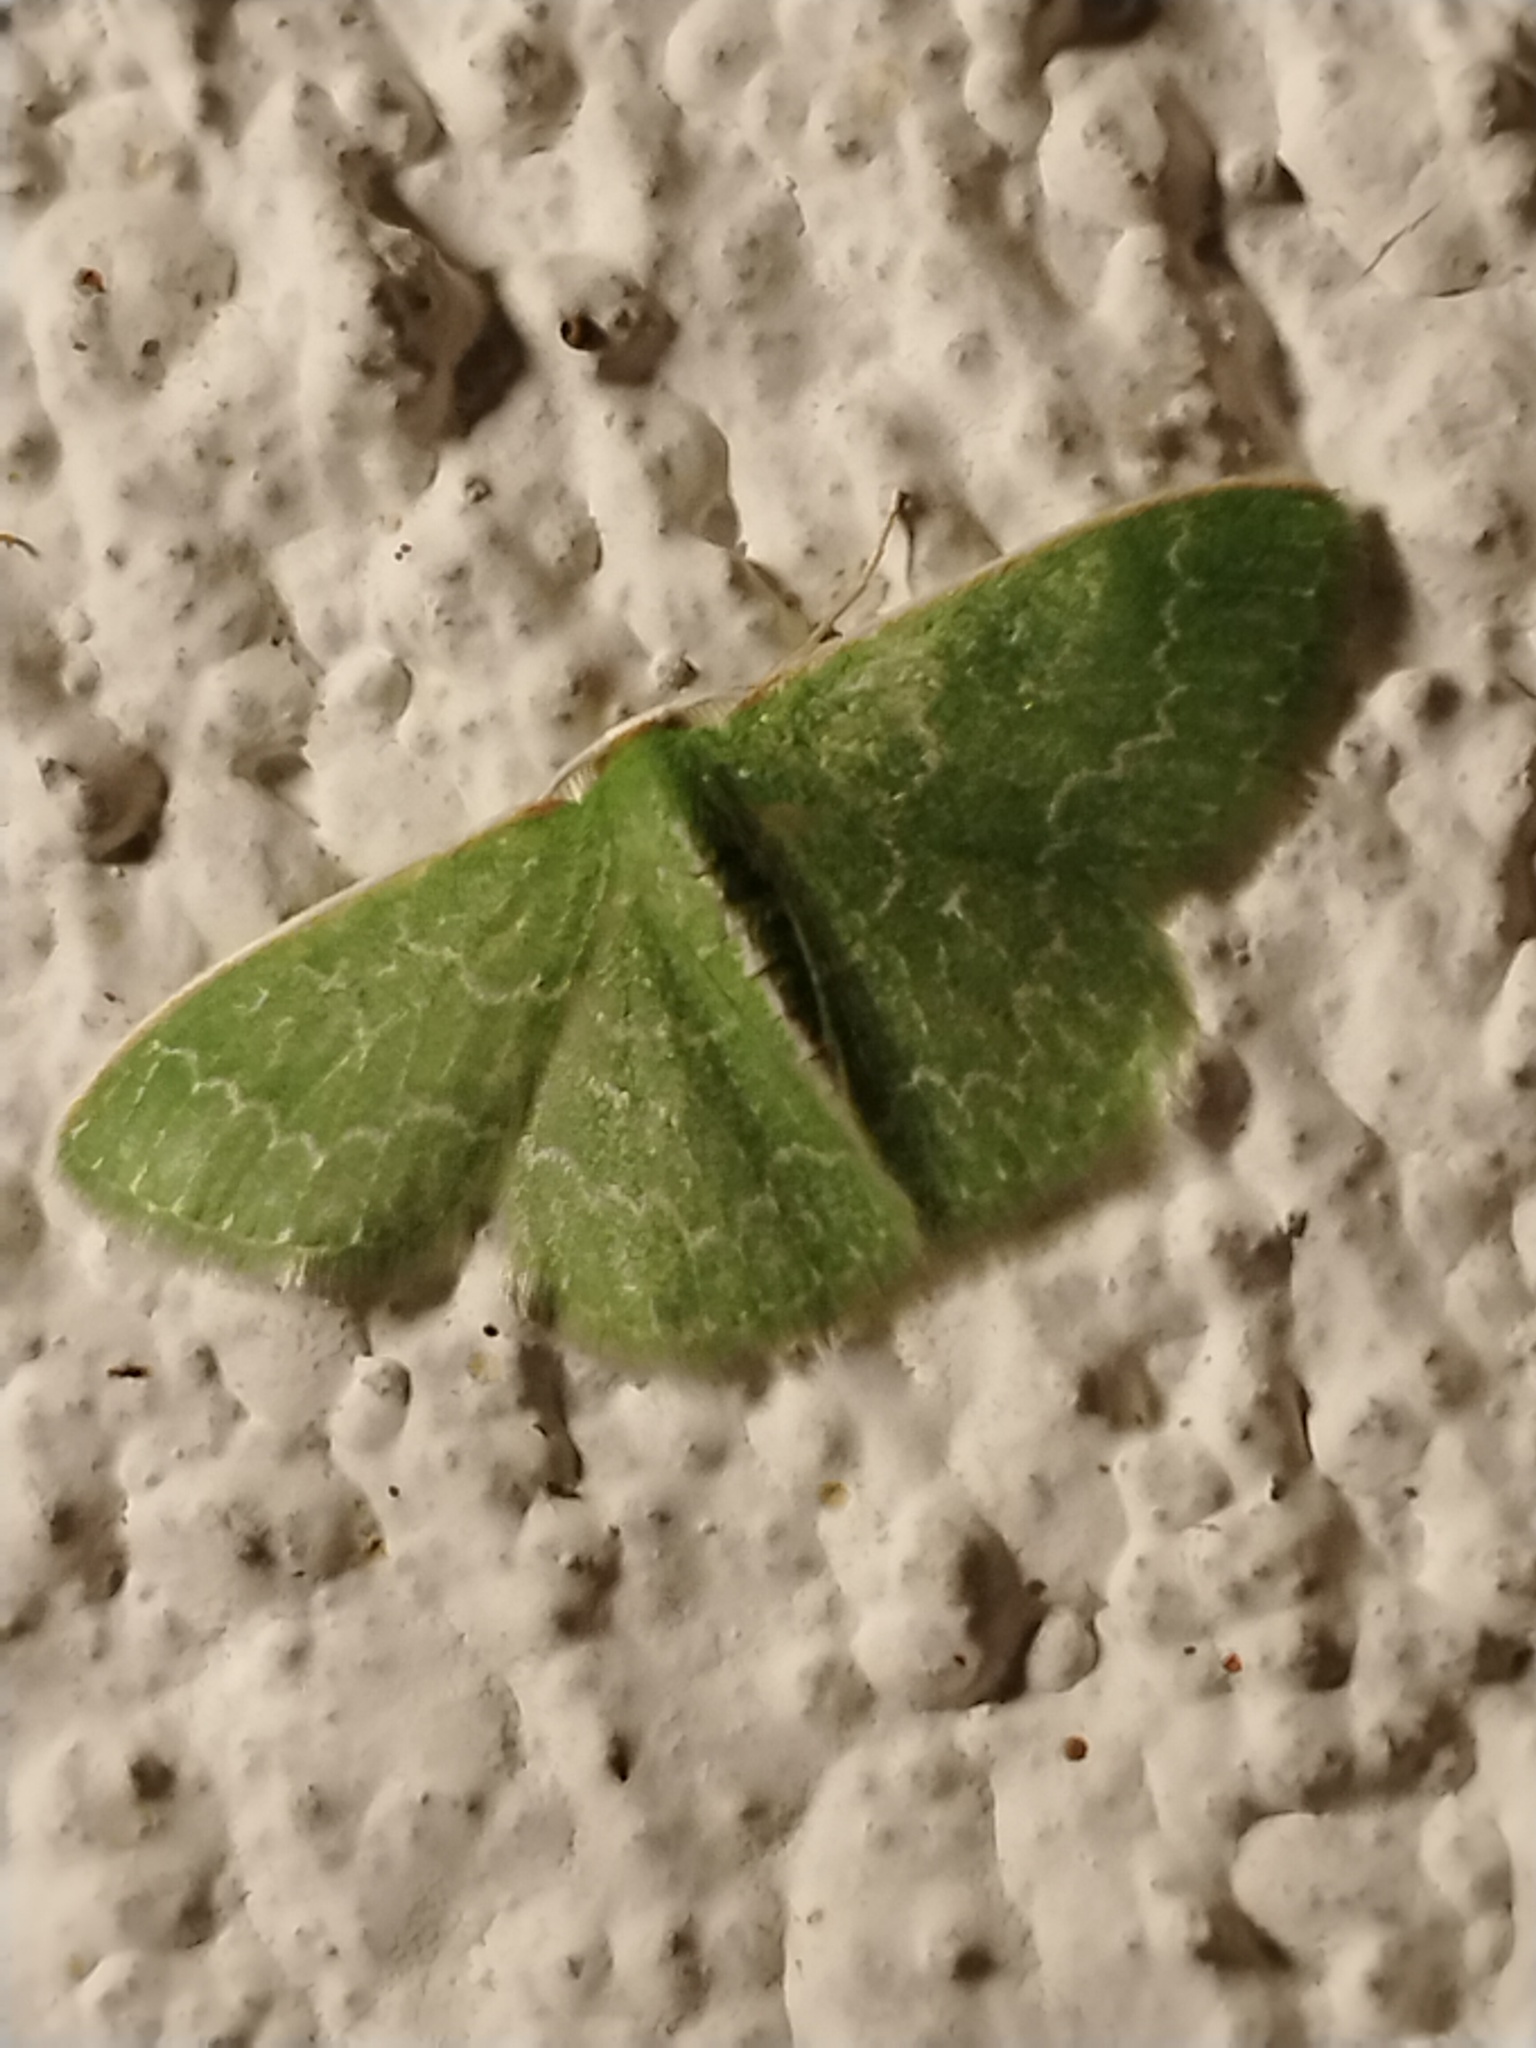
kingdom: Animalia
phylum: Arthropoda
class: Insecta
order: Lepidoptera
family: Geometridae
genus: Synchlora
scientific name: Synchlora frondaria
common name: Southern emerald
